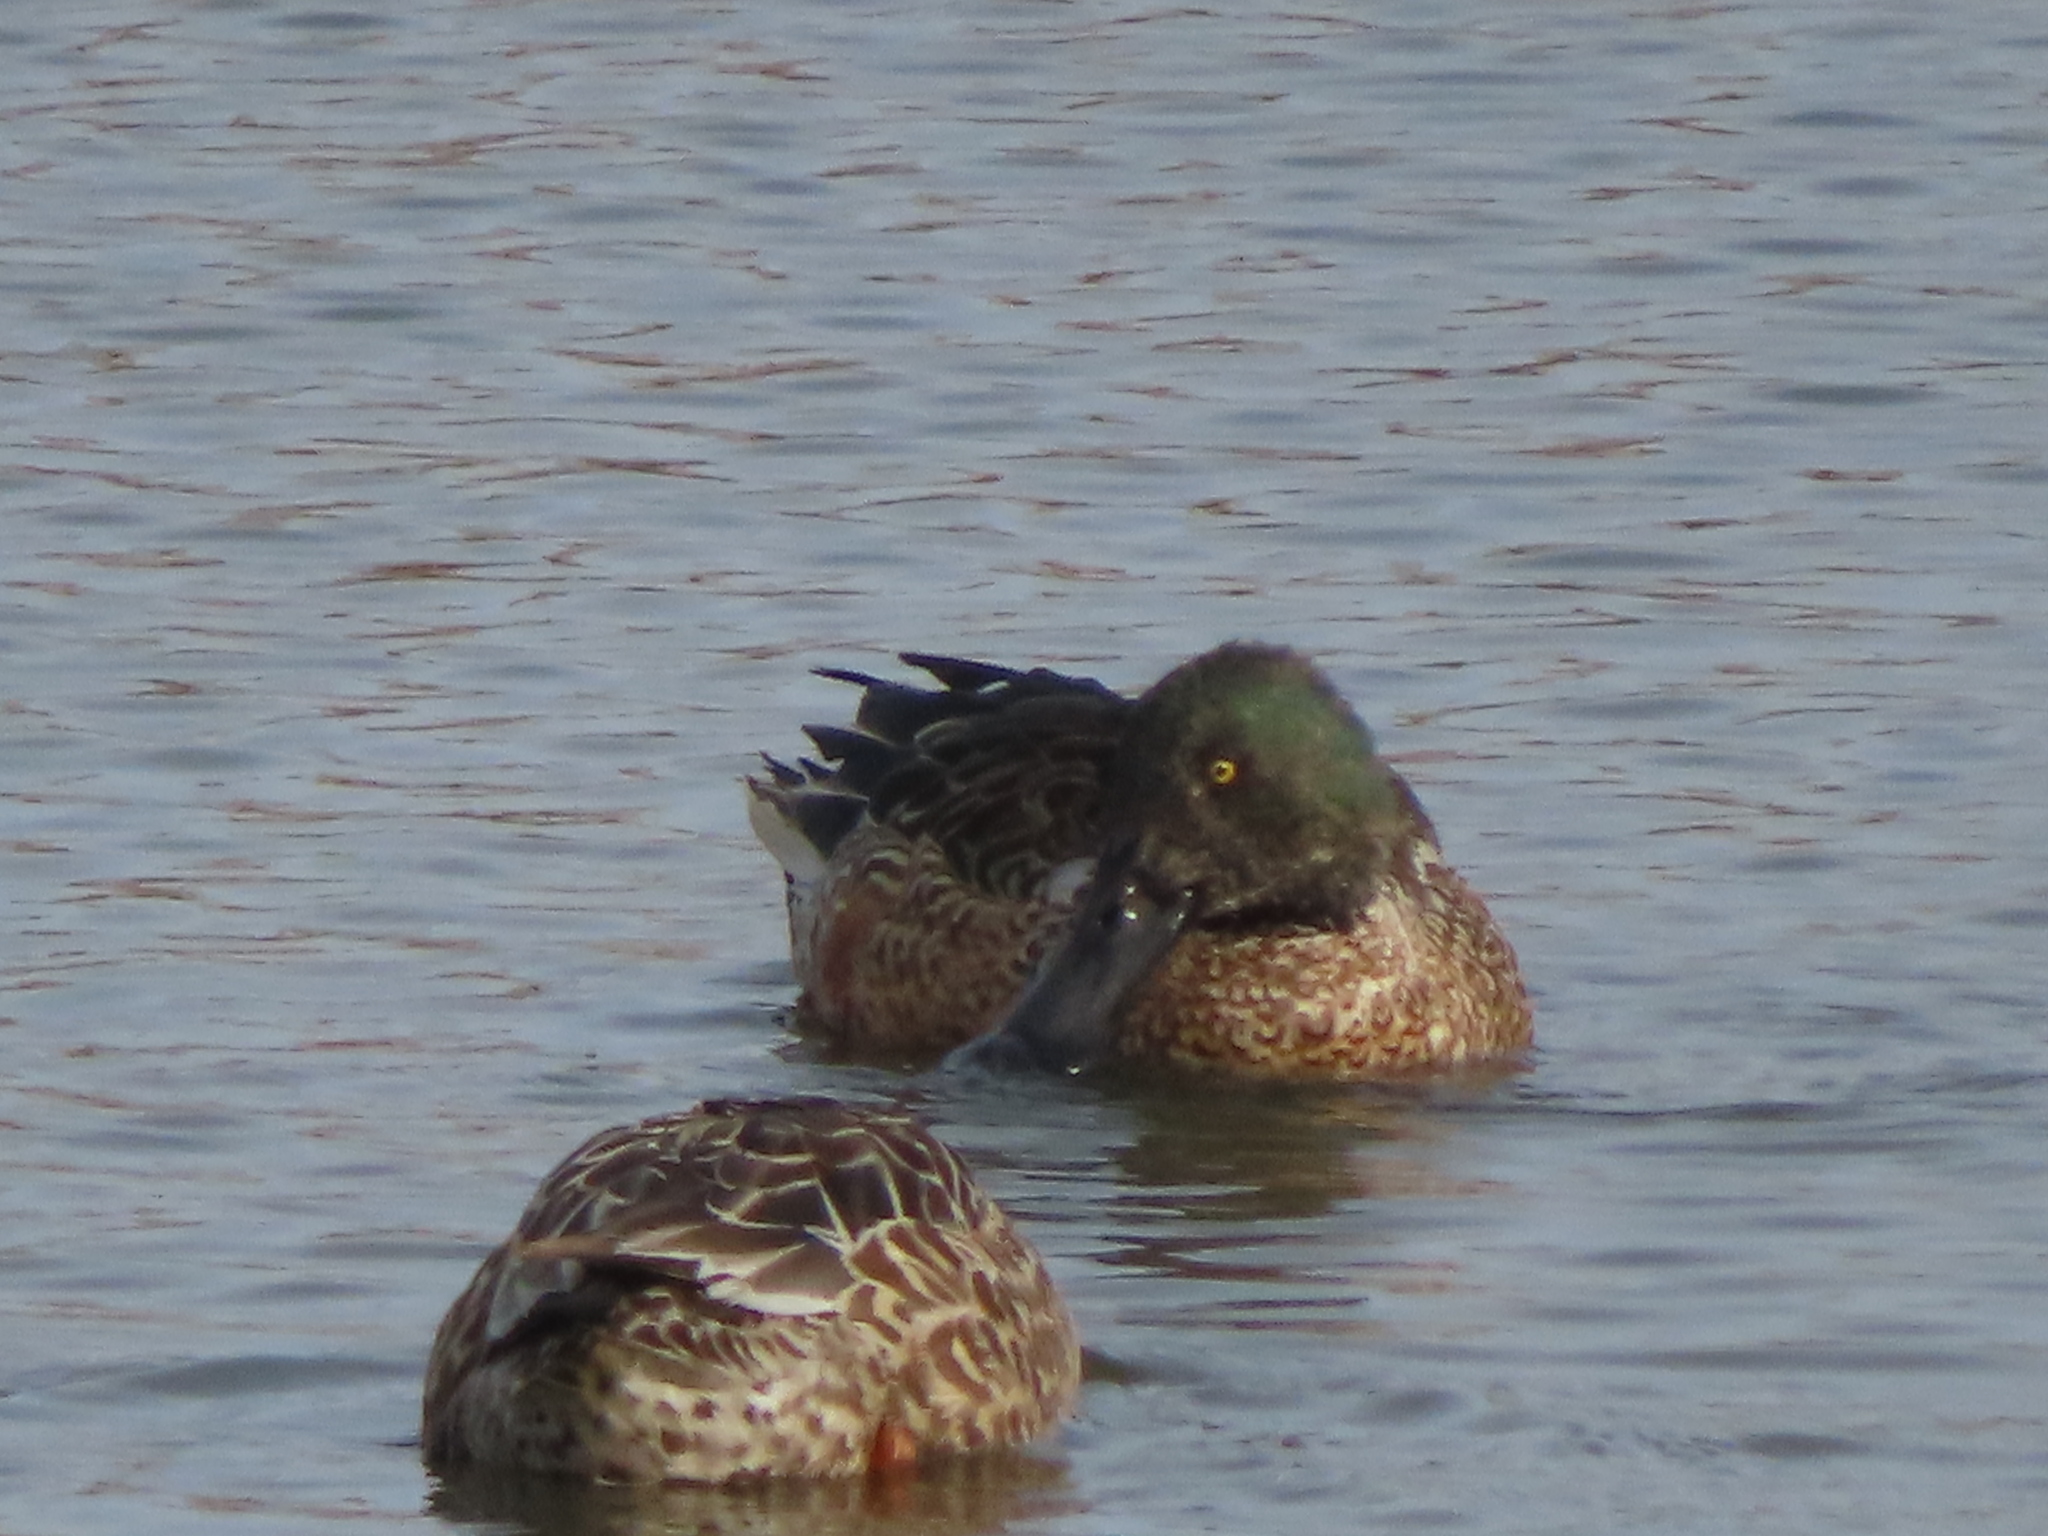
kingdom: Animalia
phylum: Chordata
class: Aves
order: Anseriformes
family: Anatidae
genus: Spatula
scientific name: Spatula clypeata
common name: Northern shoveler
